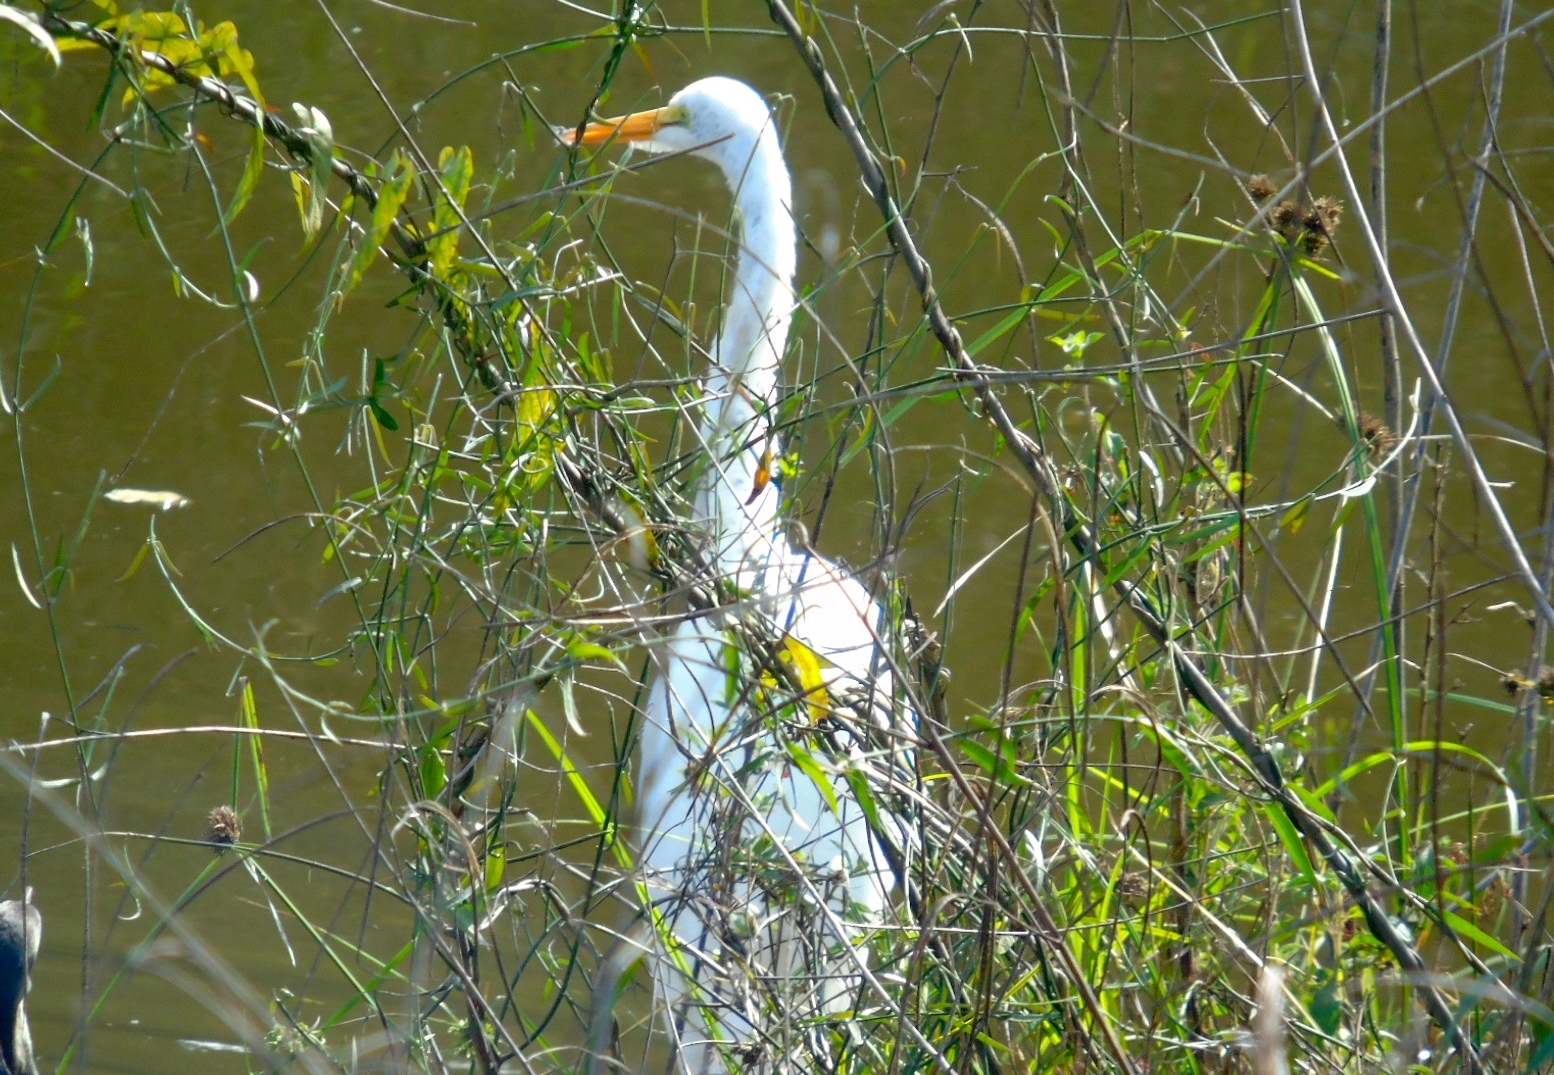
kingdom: Animalia
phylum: Chordata
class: Aves
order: Pelecaniformes
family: Ardeidae
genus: Ardea
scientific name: Ardea alba
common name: Great egret
